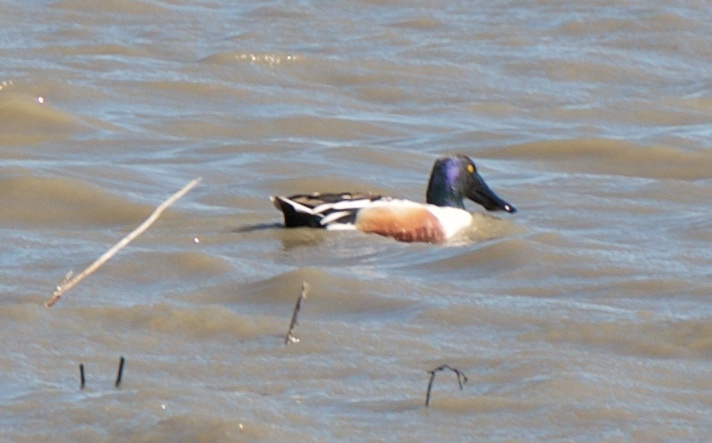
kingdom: Animalia
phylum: Chordata
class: Aves
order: Anseriformes
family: Anatidae
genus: Spatula
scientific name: Spatula clypeata
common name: Northern shoveler
